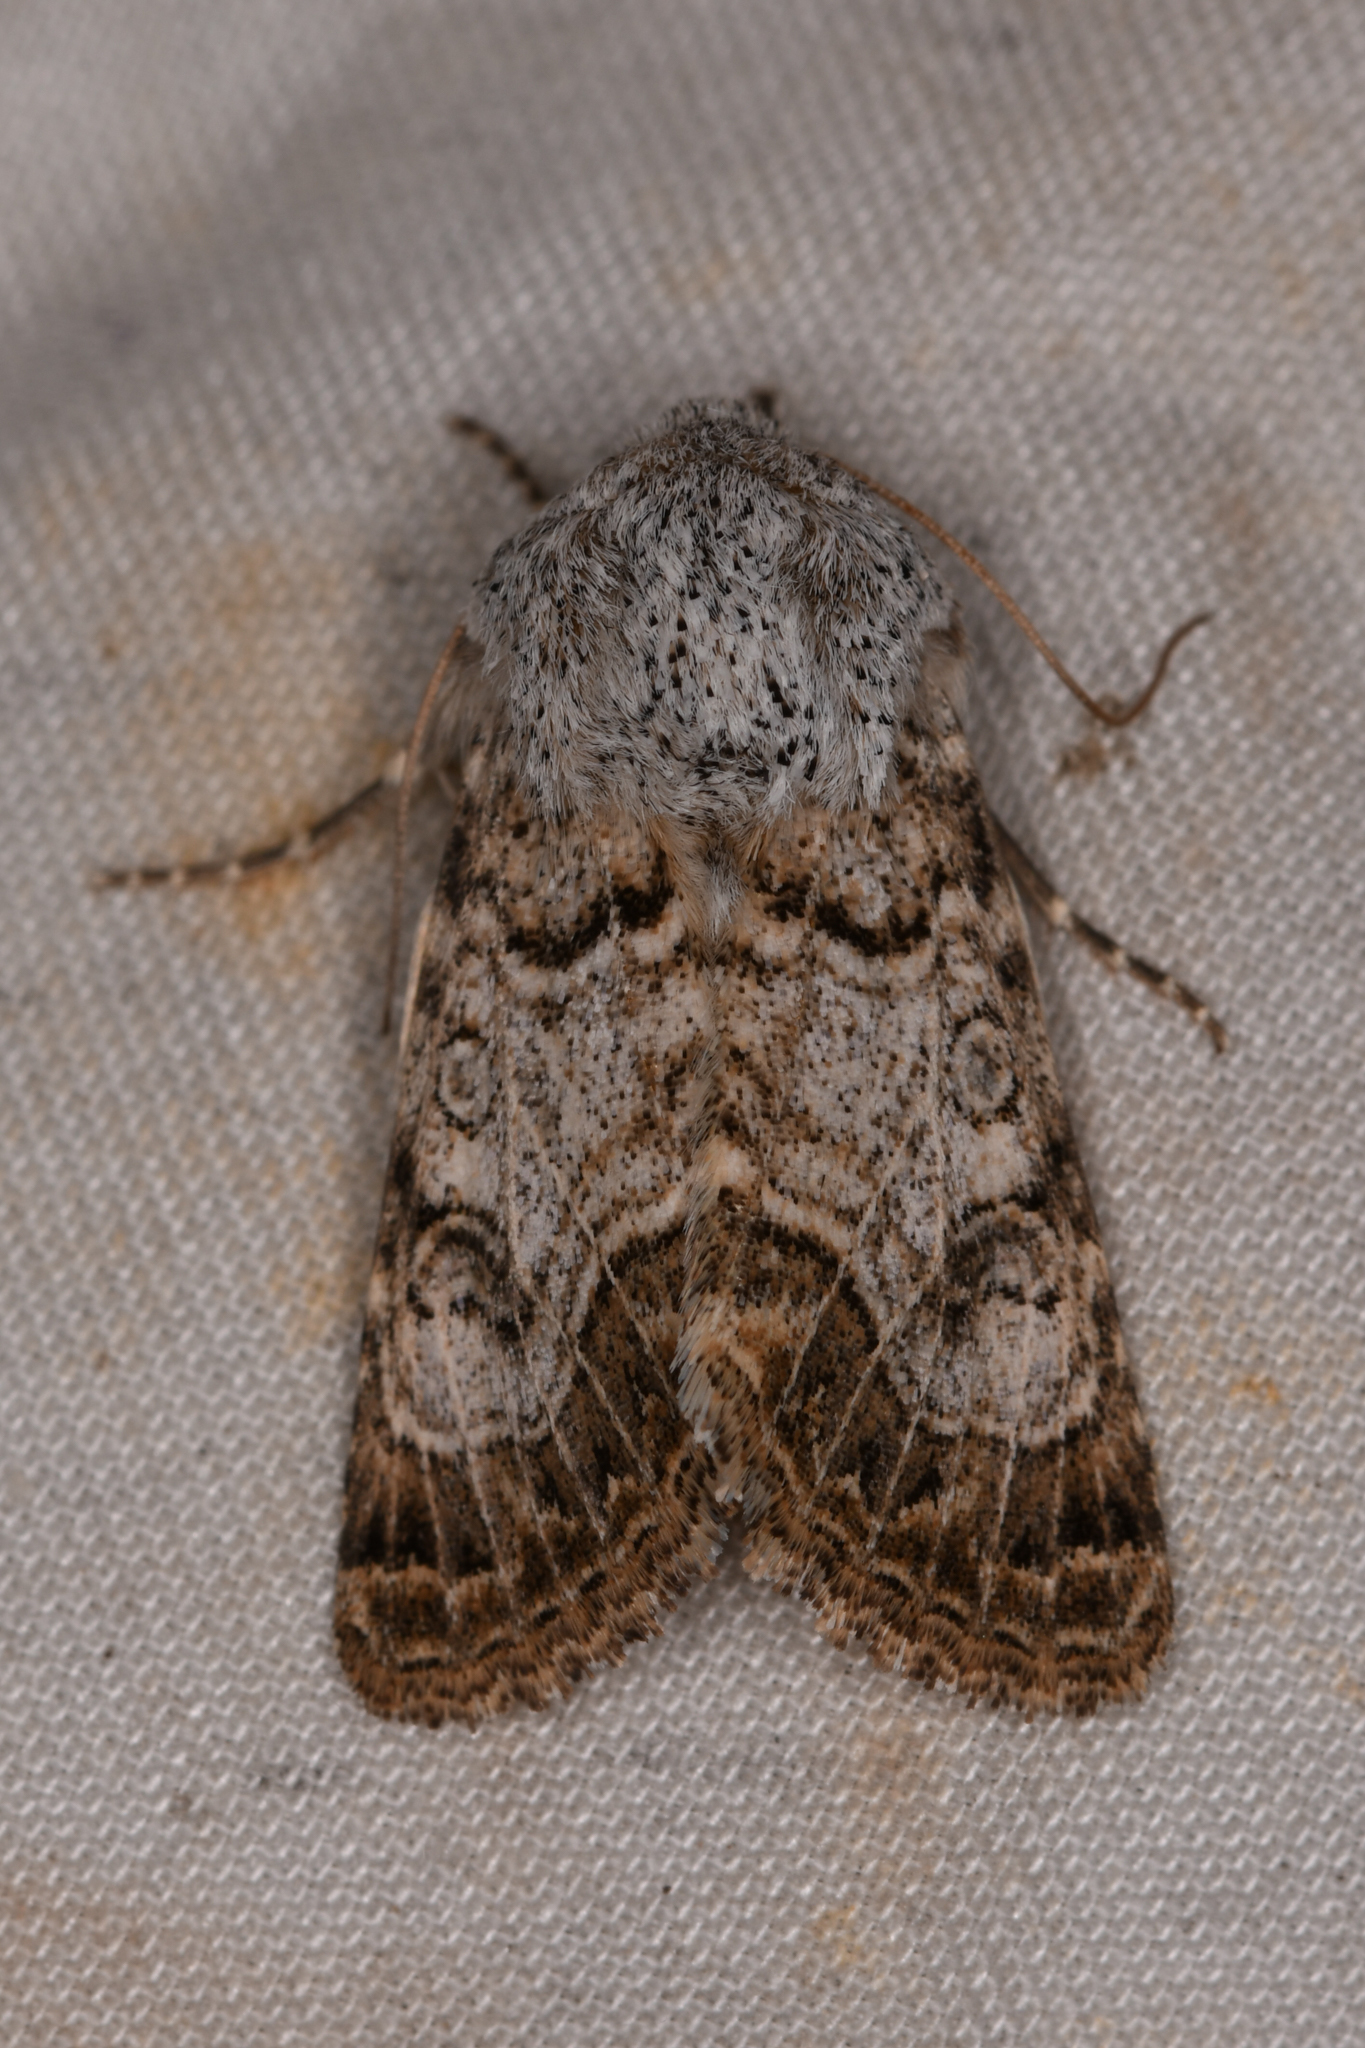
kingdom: Animalia
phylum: Arthropoda
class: Insecta
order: Lepidoptera
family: Noctuidae
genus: Schinia
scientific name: Schinia deserticola
